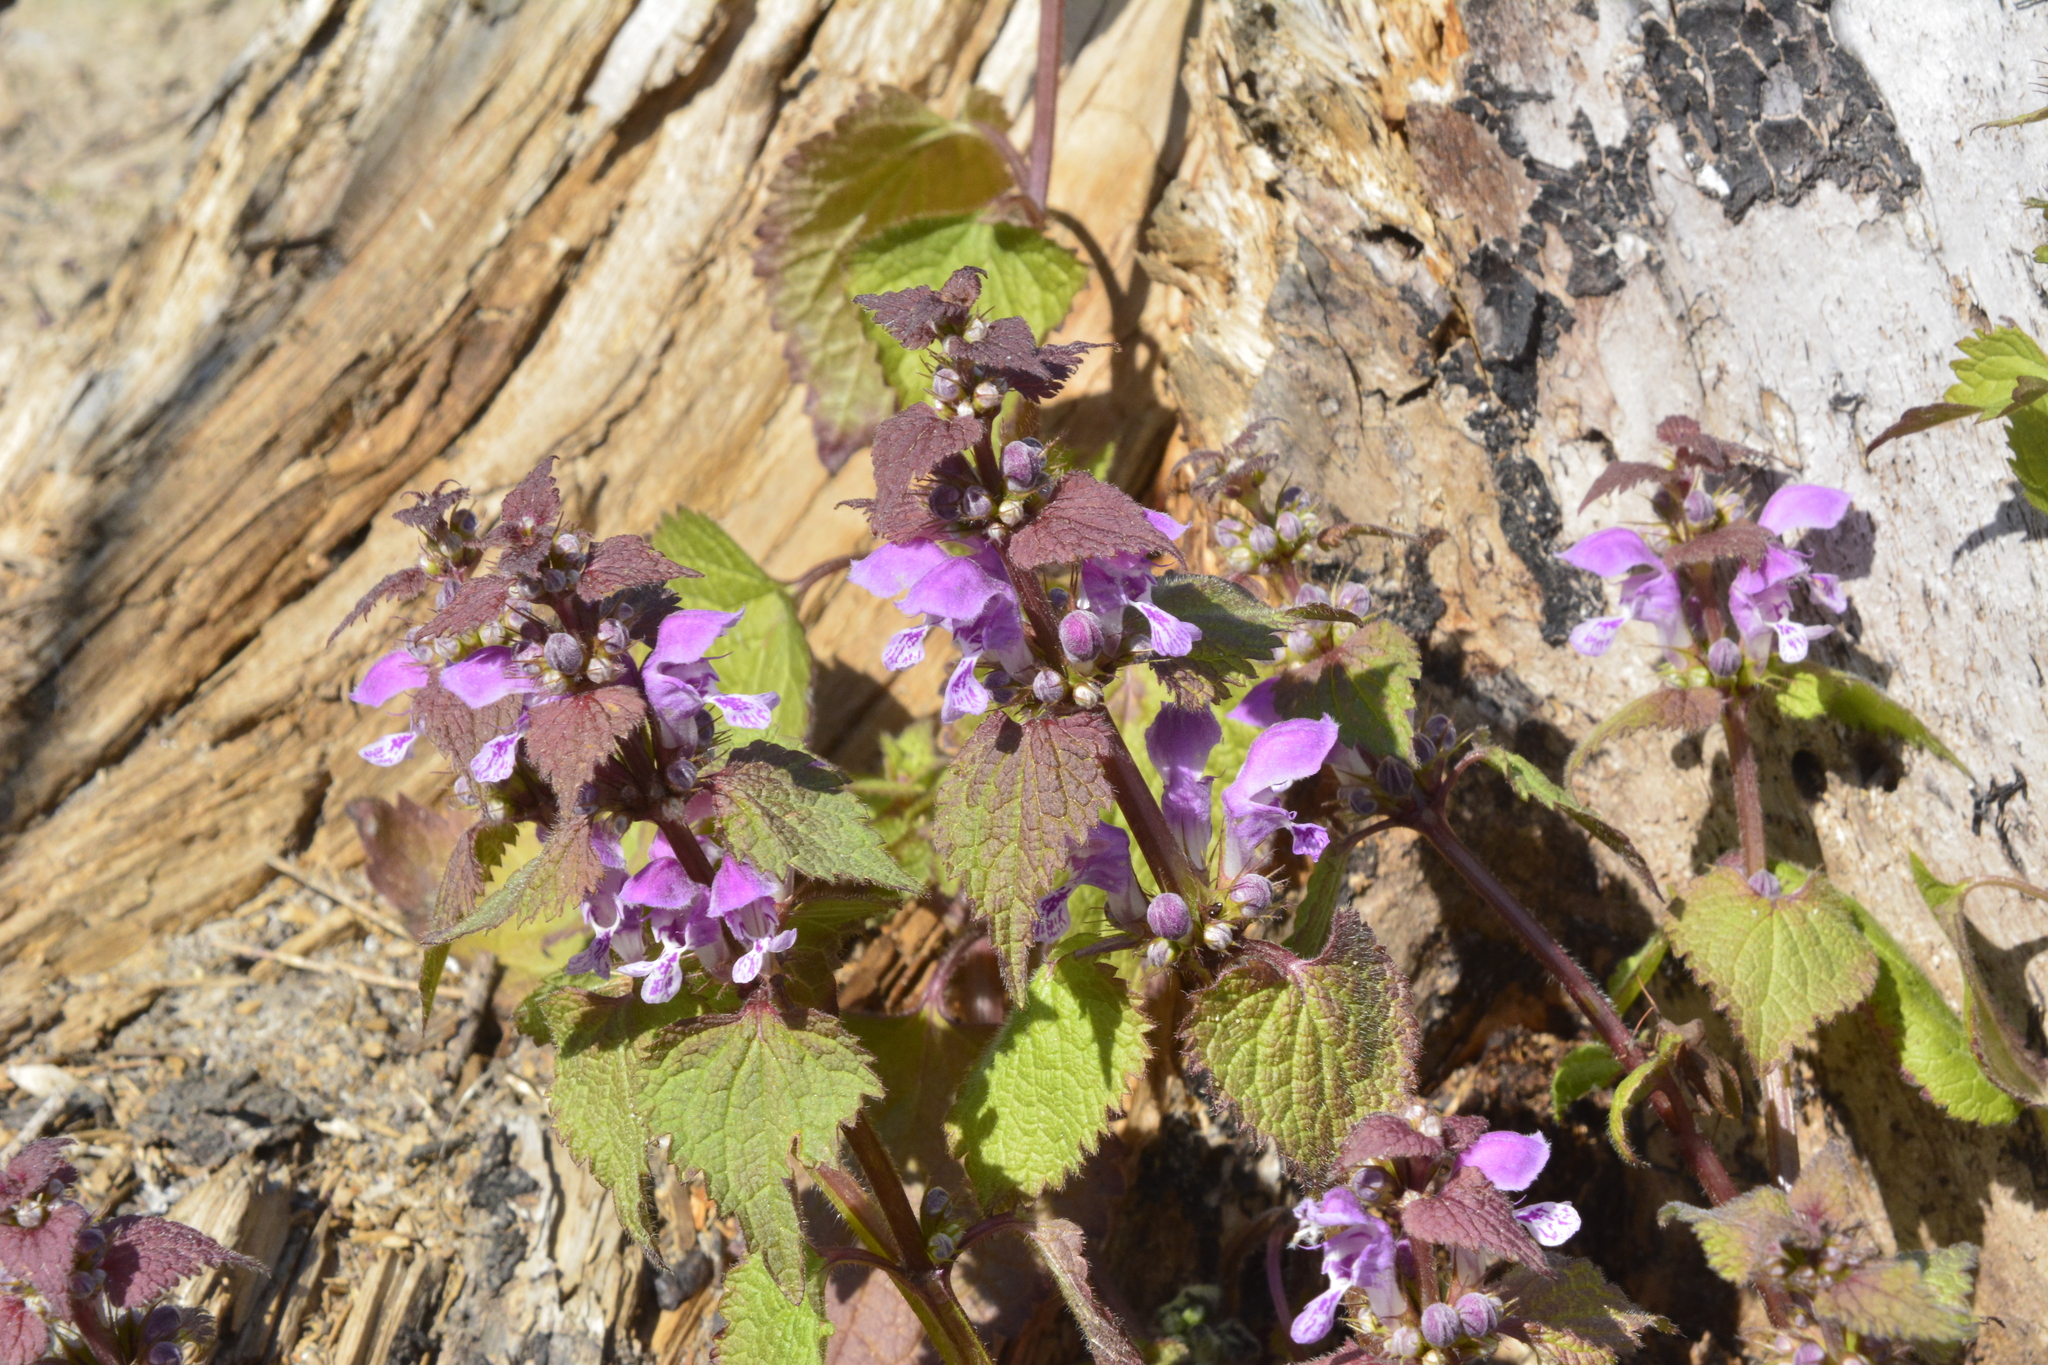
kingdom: Plantae
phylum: Tracheophyta
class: Magnoliopsida
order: Lamiales
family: Lamiaceae
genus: Lamium
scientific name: Lamium maculatum
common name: Spotted dead-nettle
